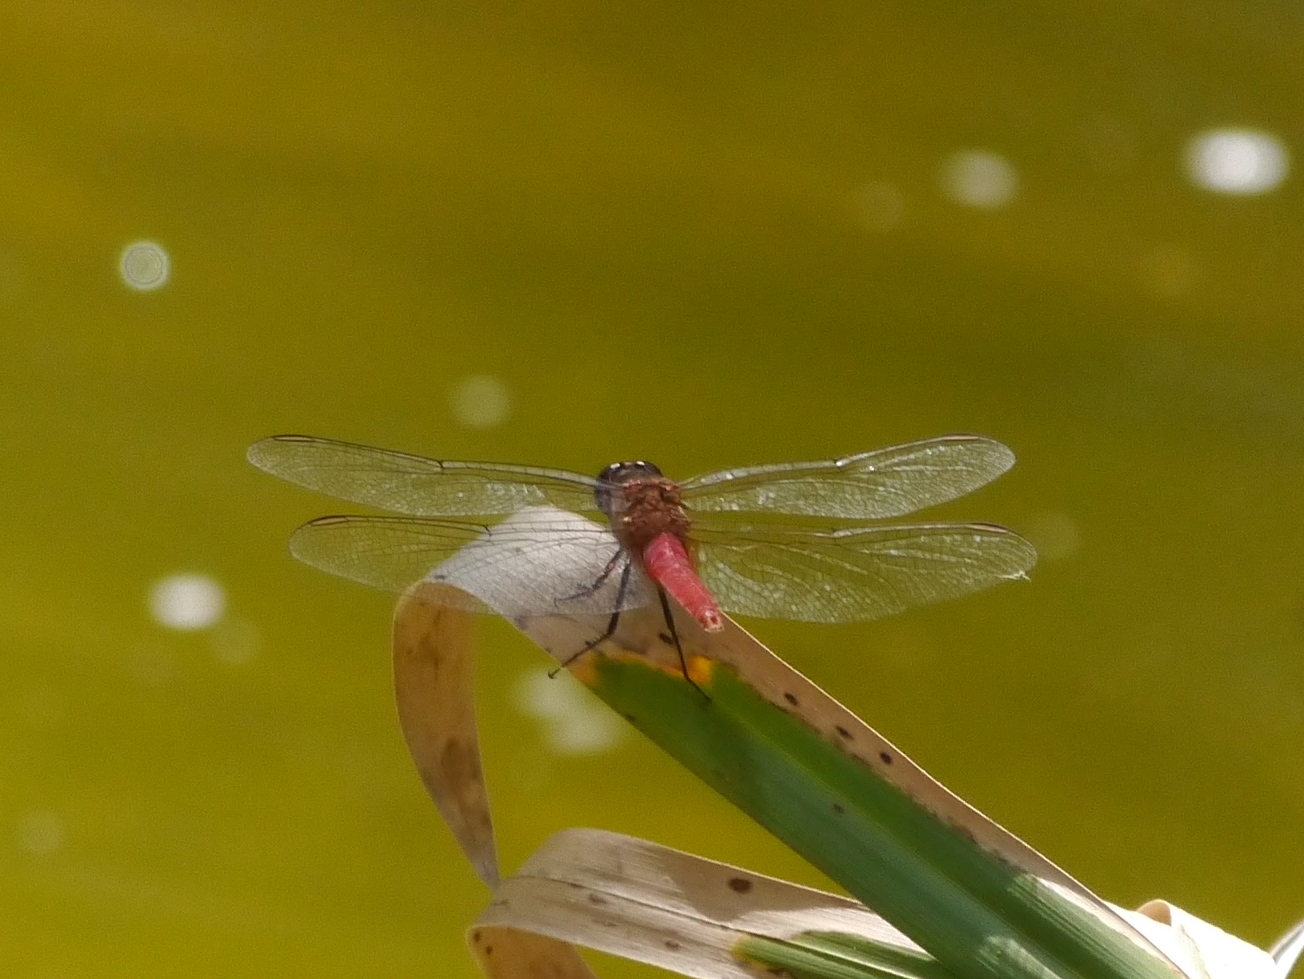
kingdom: Animalia
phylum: Arthropoda
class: Insecta
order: Odonata
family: Libellulidae
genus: Brachymesia
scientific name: Brachymesia furcata
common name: Red-taled pennant
